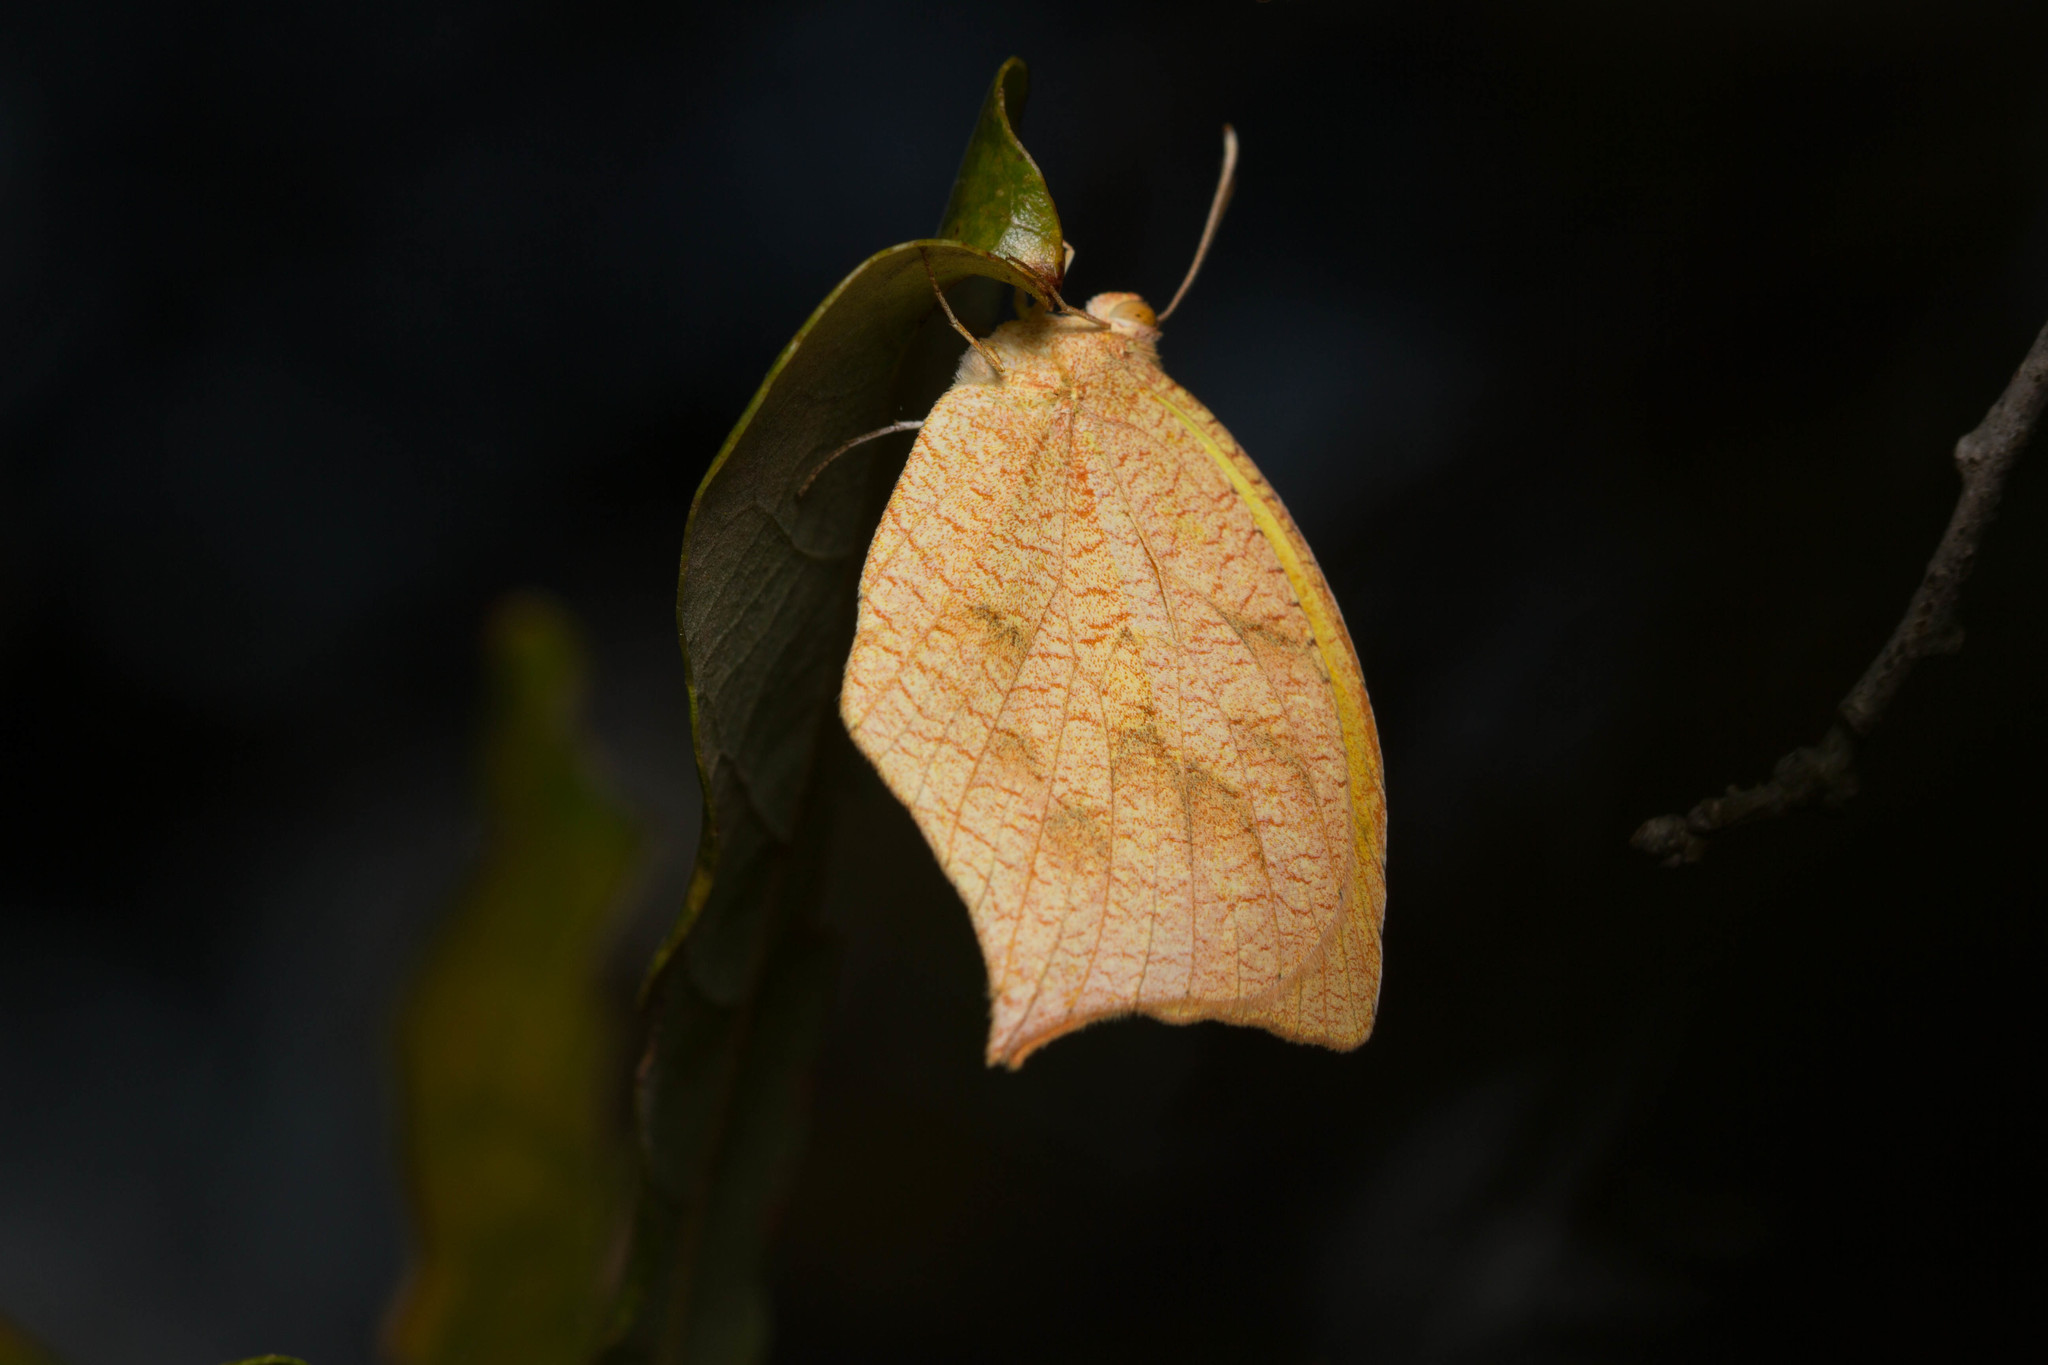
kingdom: Animalia
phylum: Arthropoda
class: Insecta
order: Lepidoptera
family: Pieridae
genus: Pyrisitia
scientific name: Pyrisitia proterpia
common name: Tailed orange
